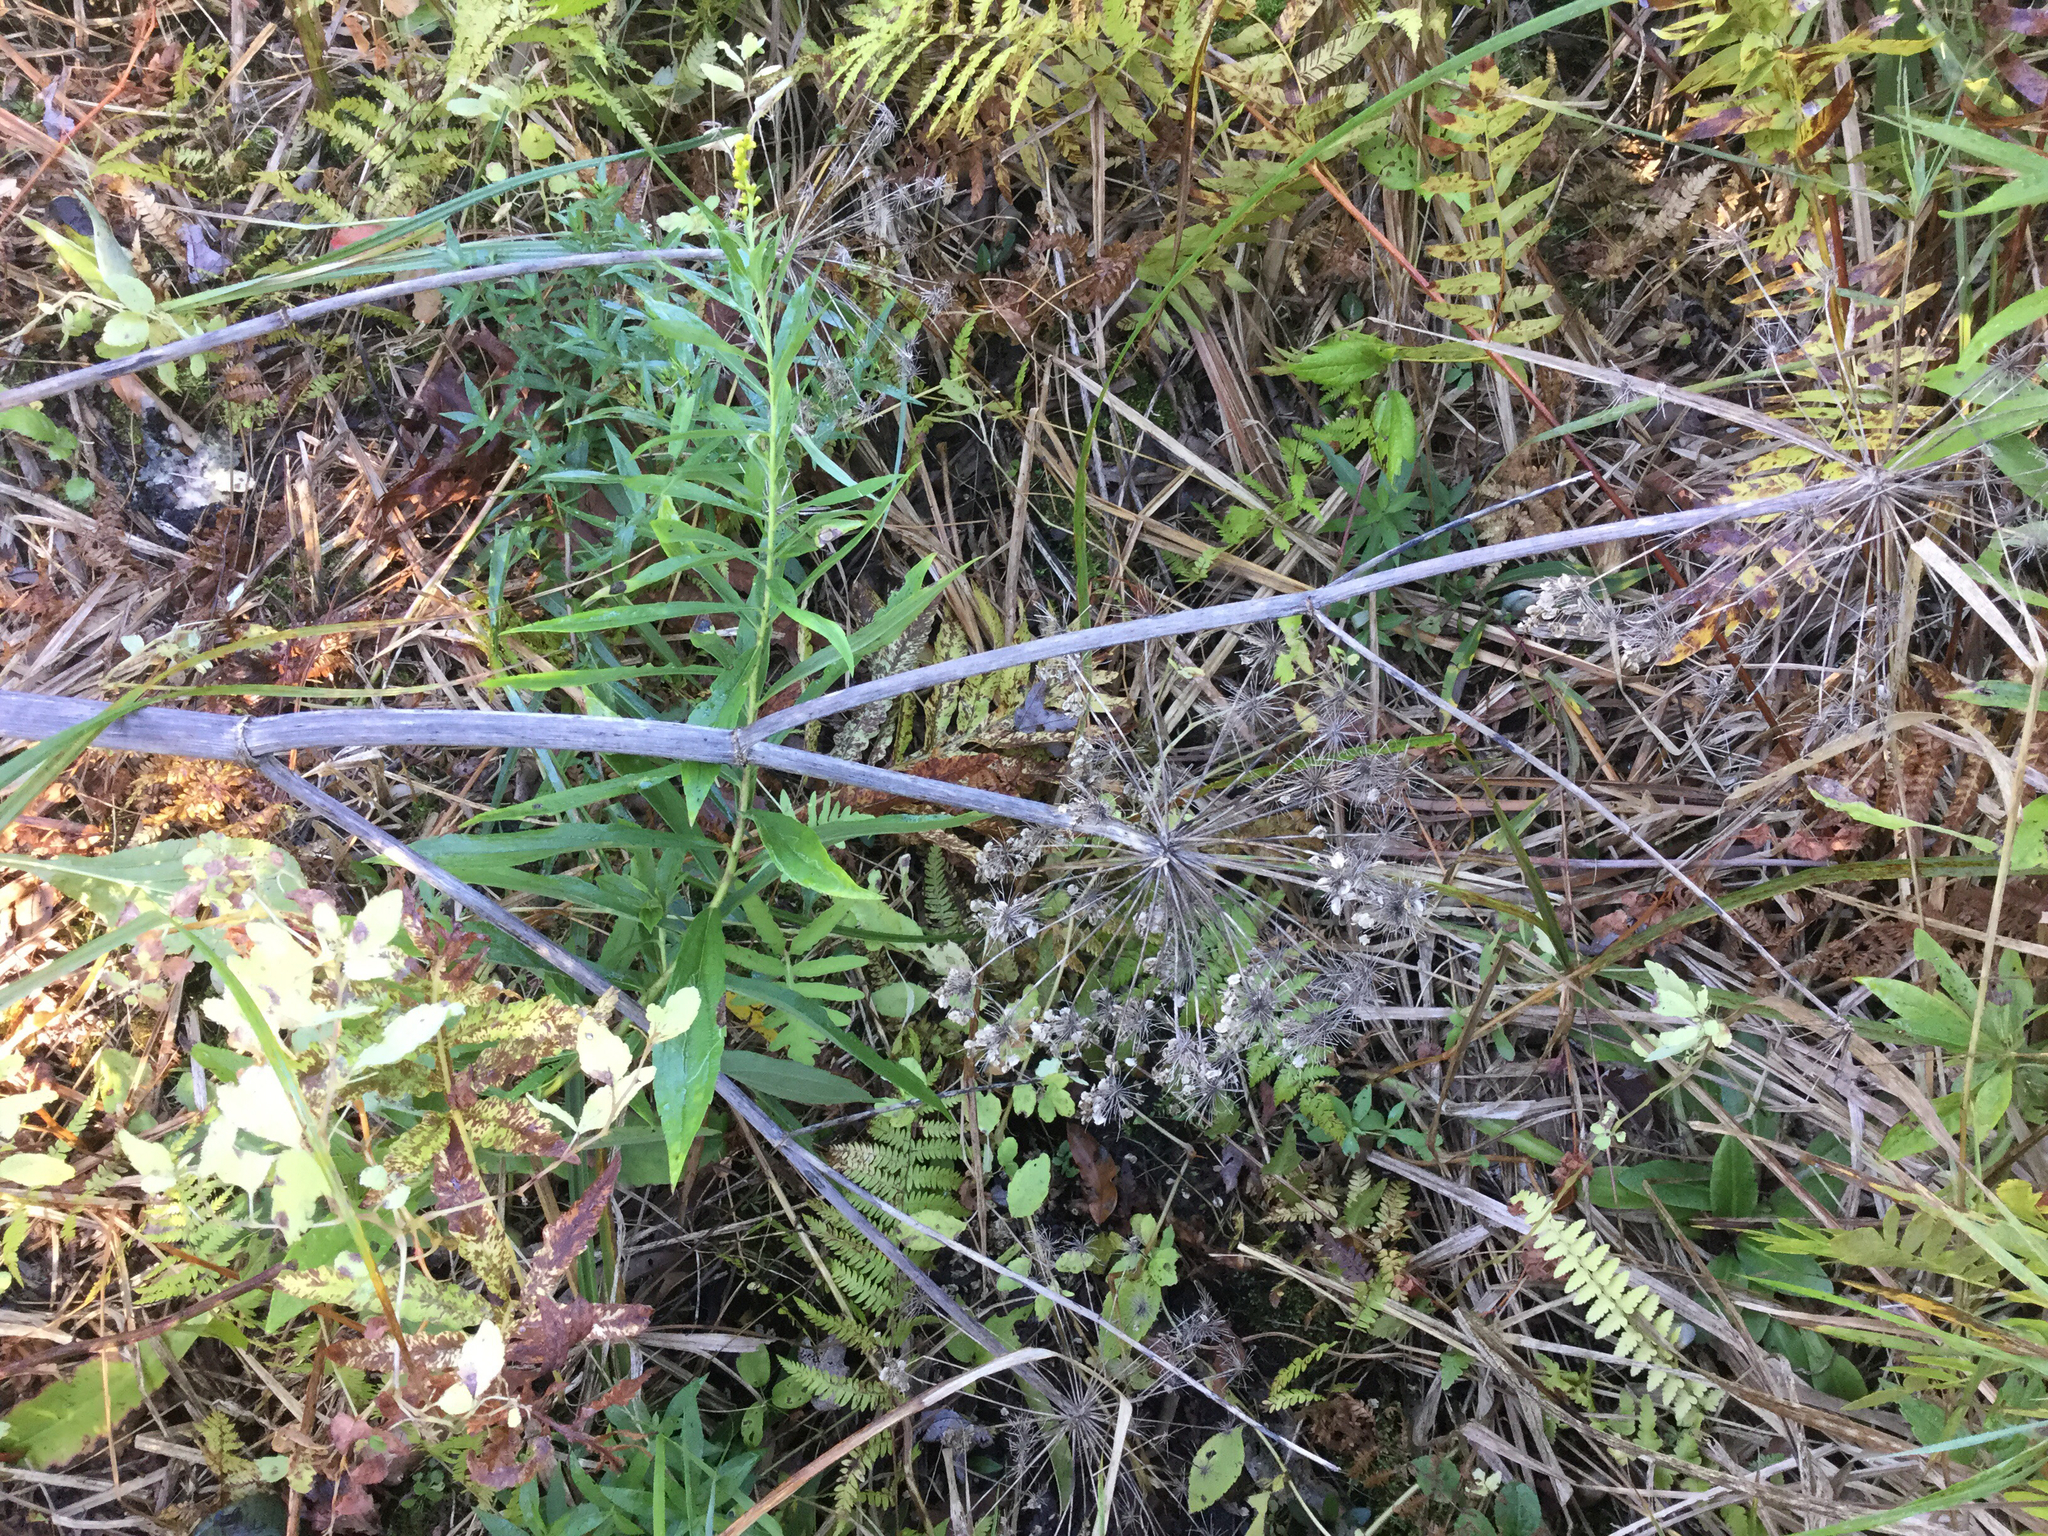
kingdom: Plantae
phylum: Tracheophyta
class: Magnoliopsida
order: Apiales
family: Apiaceae
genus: Angelica
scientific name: Angelica atropurpurea
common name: Great angelica
